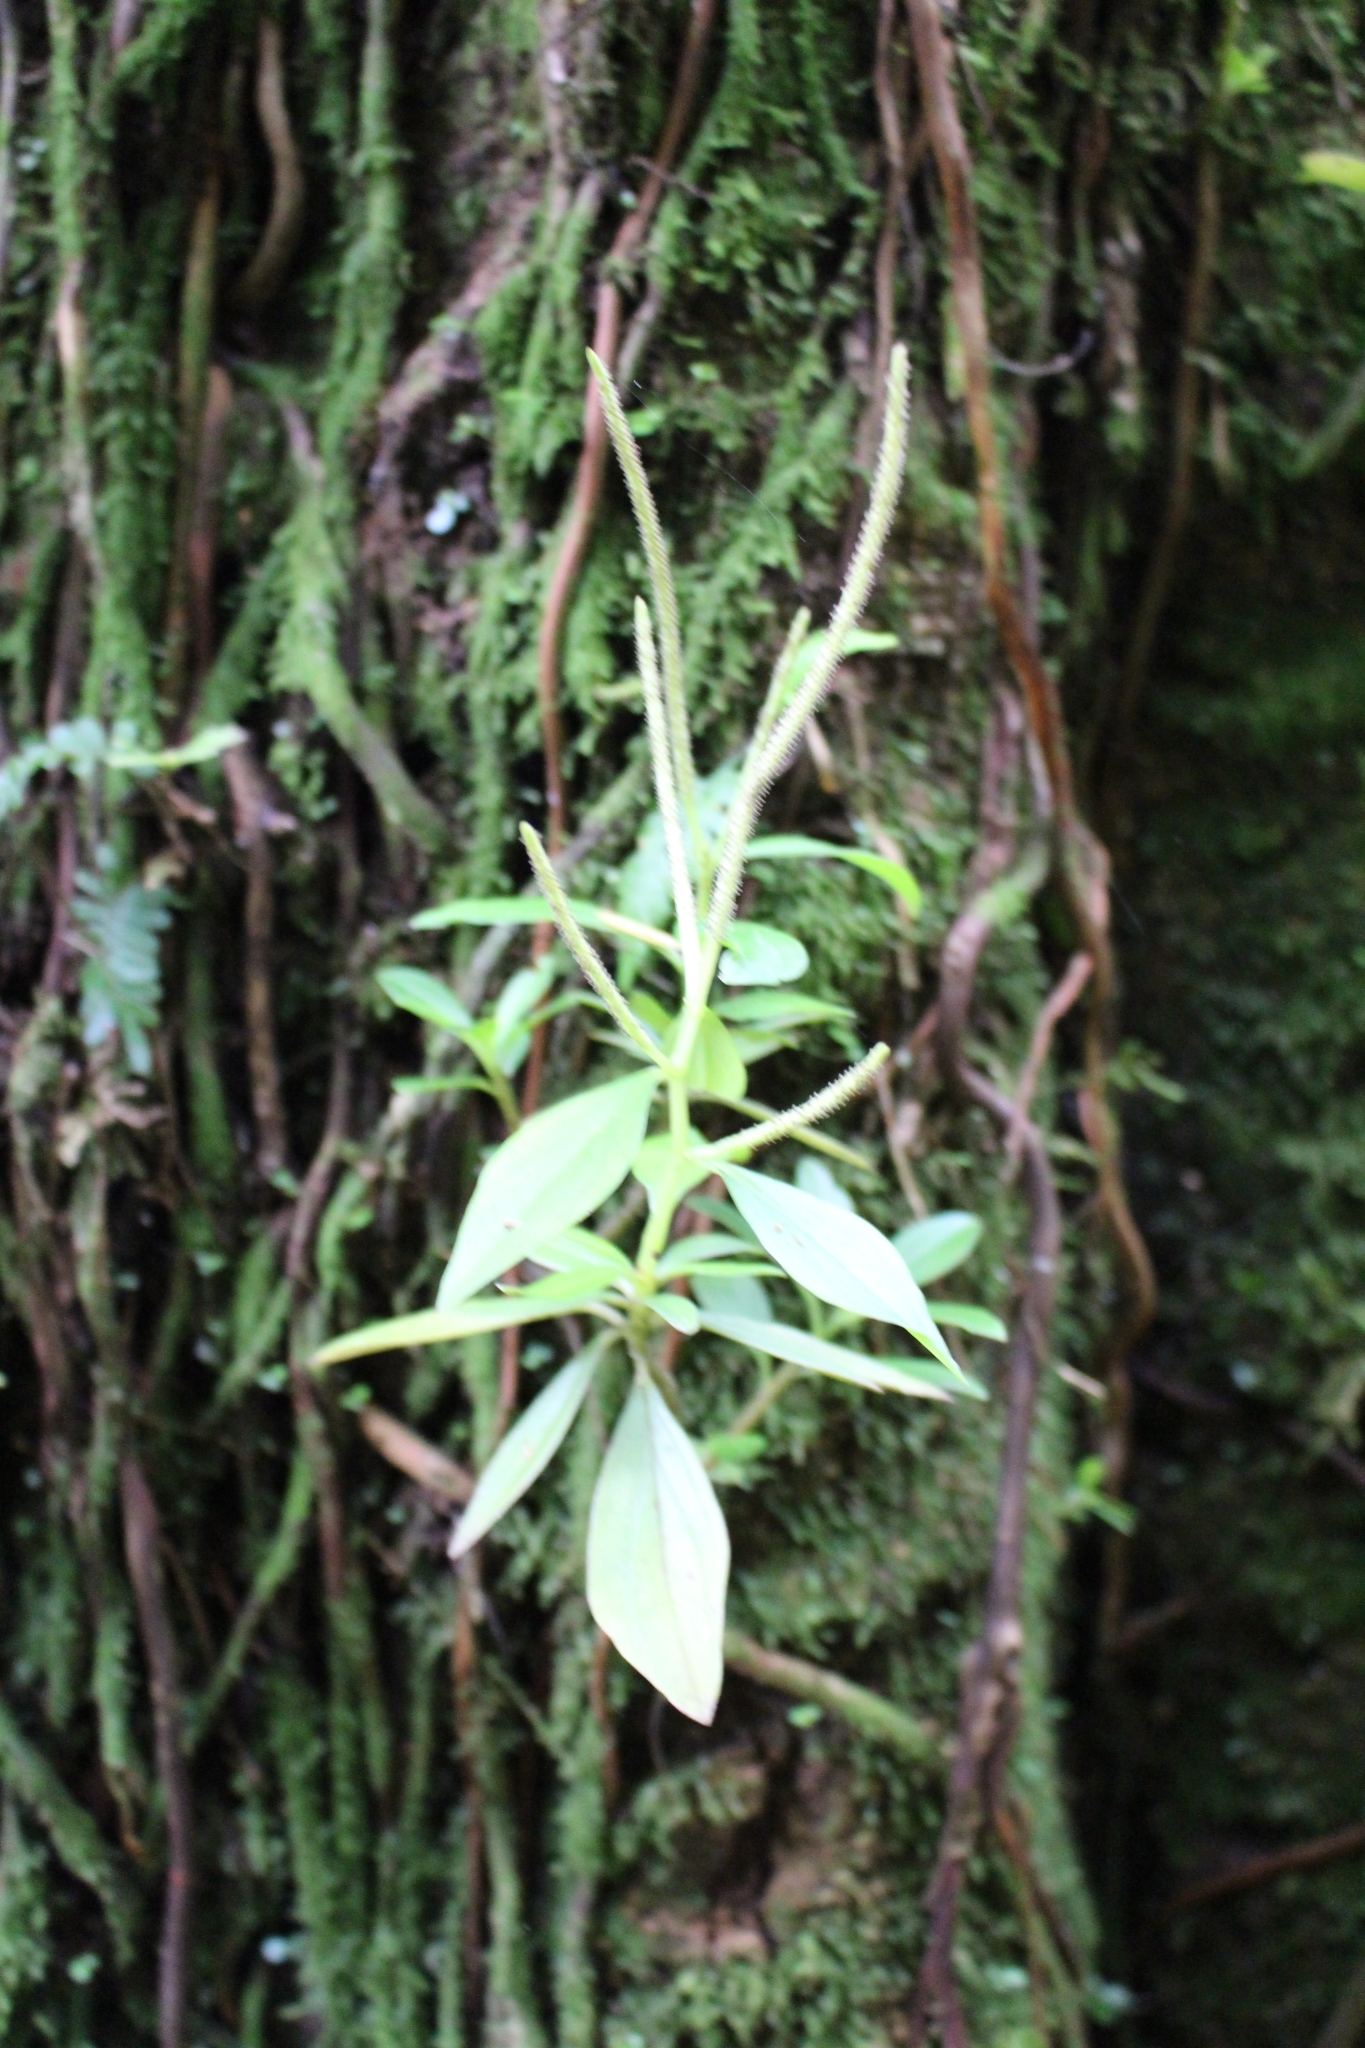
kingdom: Plantae
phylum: Tracheophyta
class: Magnoliopsida
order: Piperales
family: Piperaceae
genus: Peperomia
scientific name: Peperomia san-joseana
